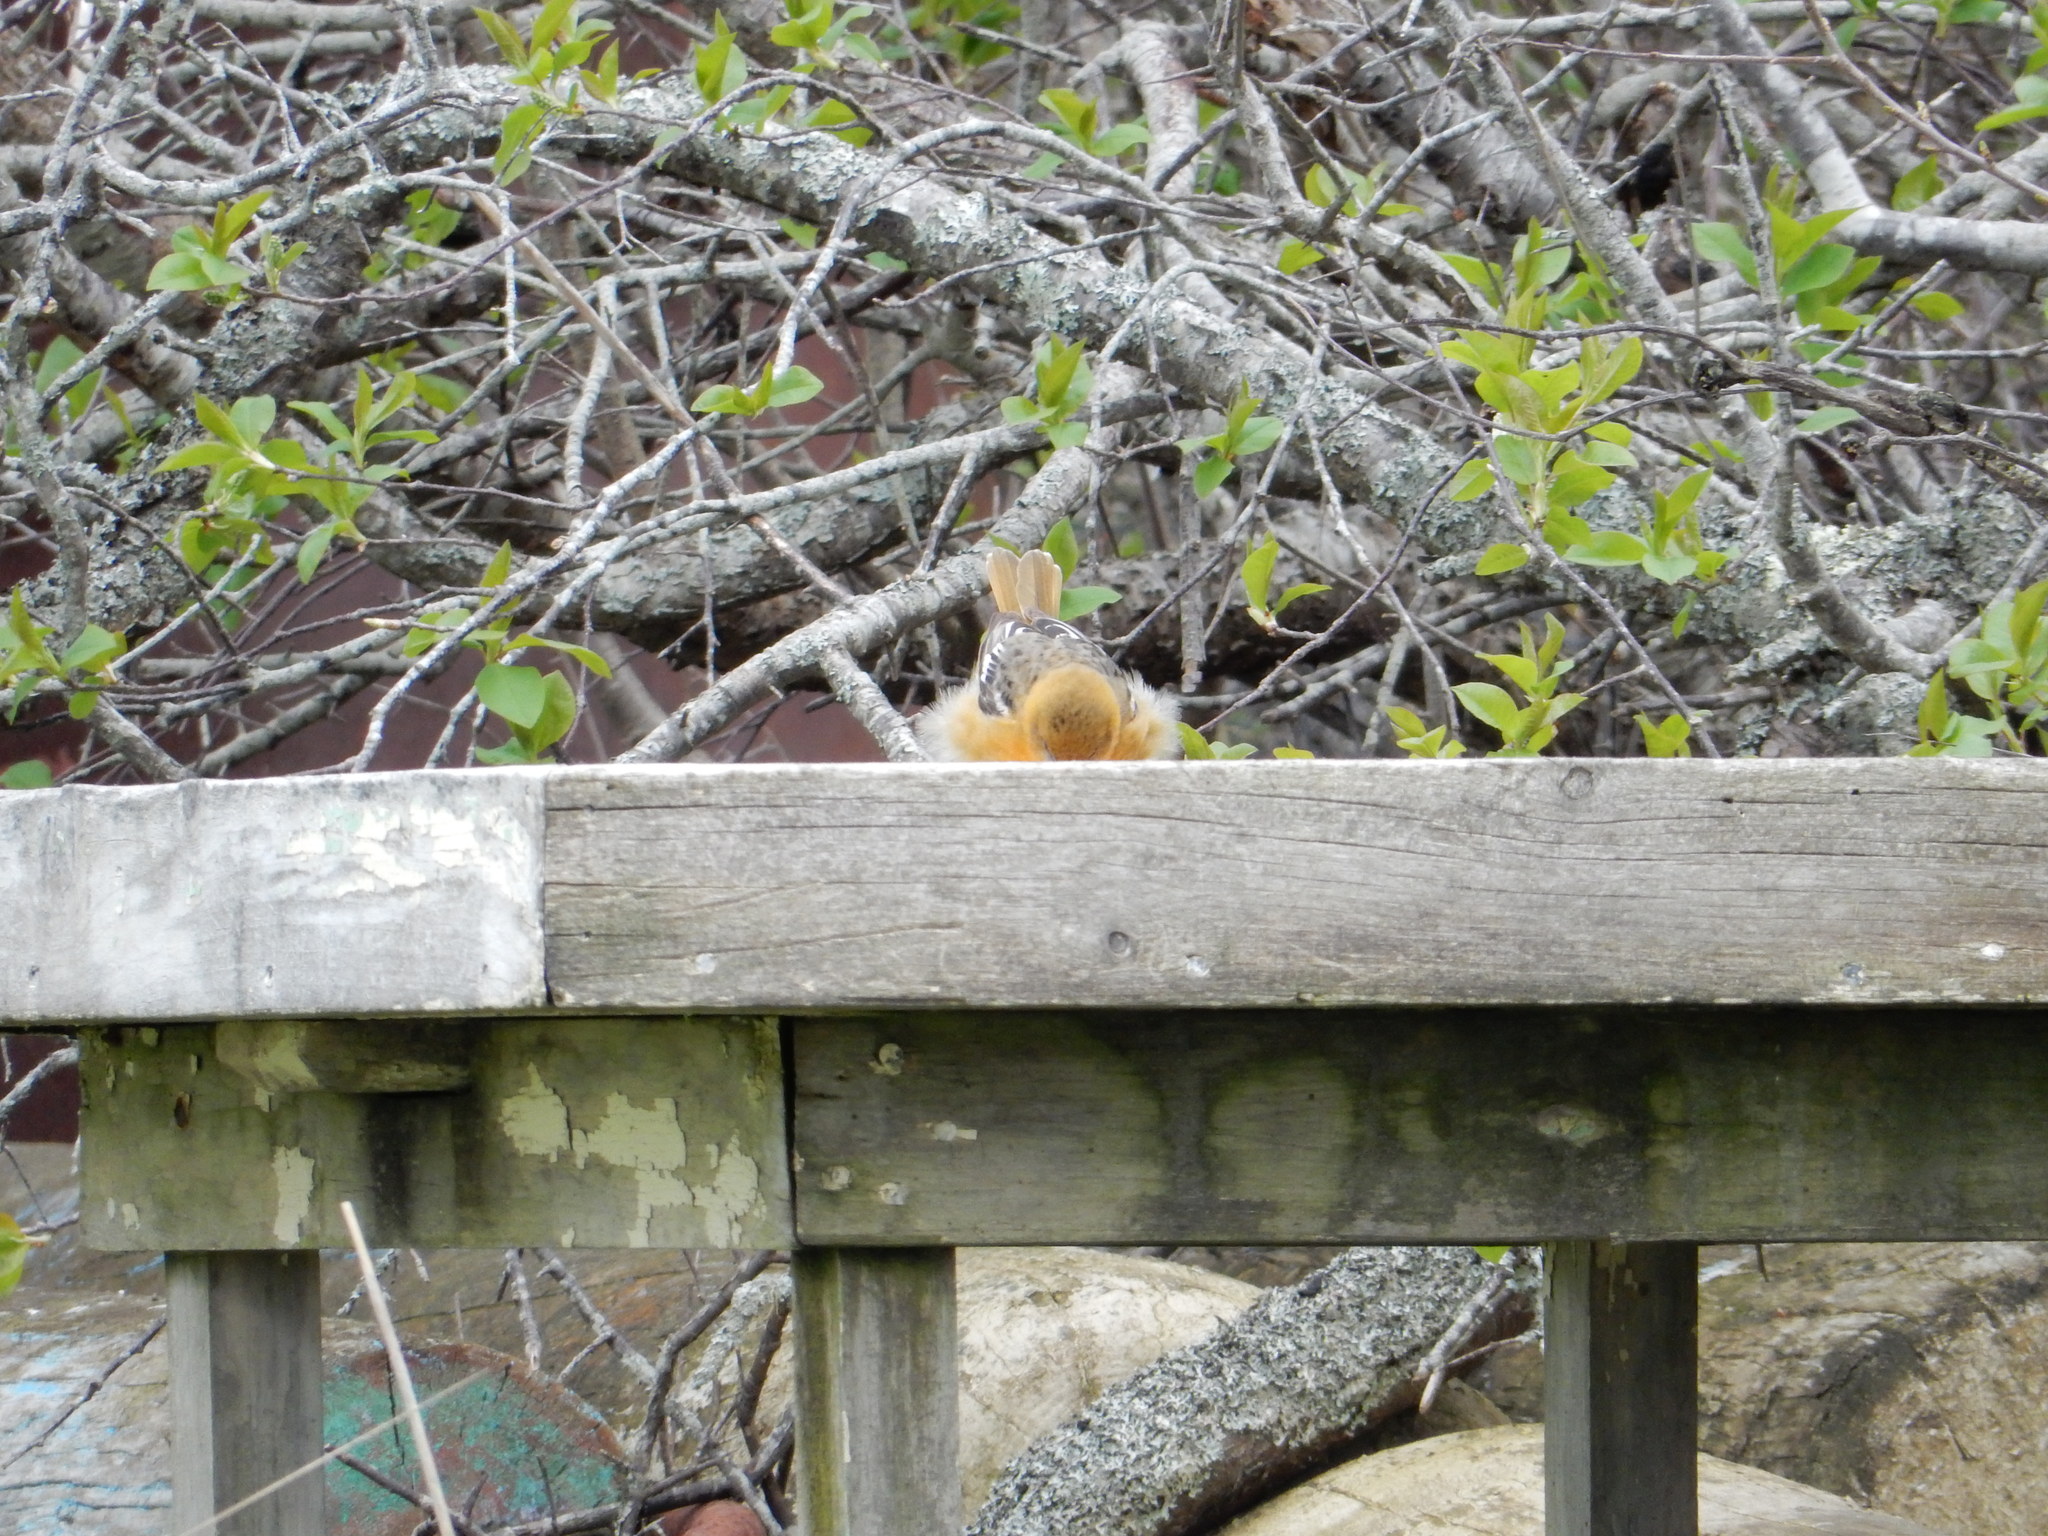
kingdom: Animalia
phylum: Chordata
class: Aves
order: Passeriformes
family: Icteridae
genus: Icterus
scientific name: Icterus galbula
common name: Baltimore oriole
